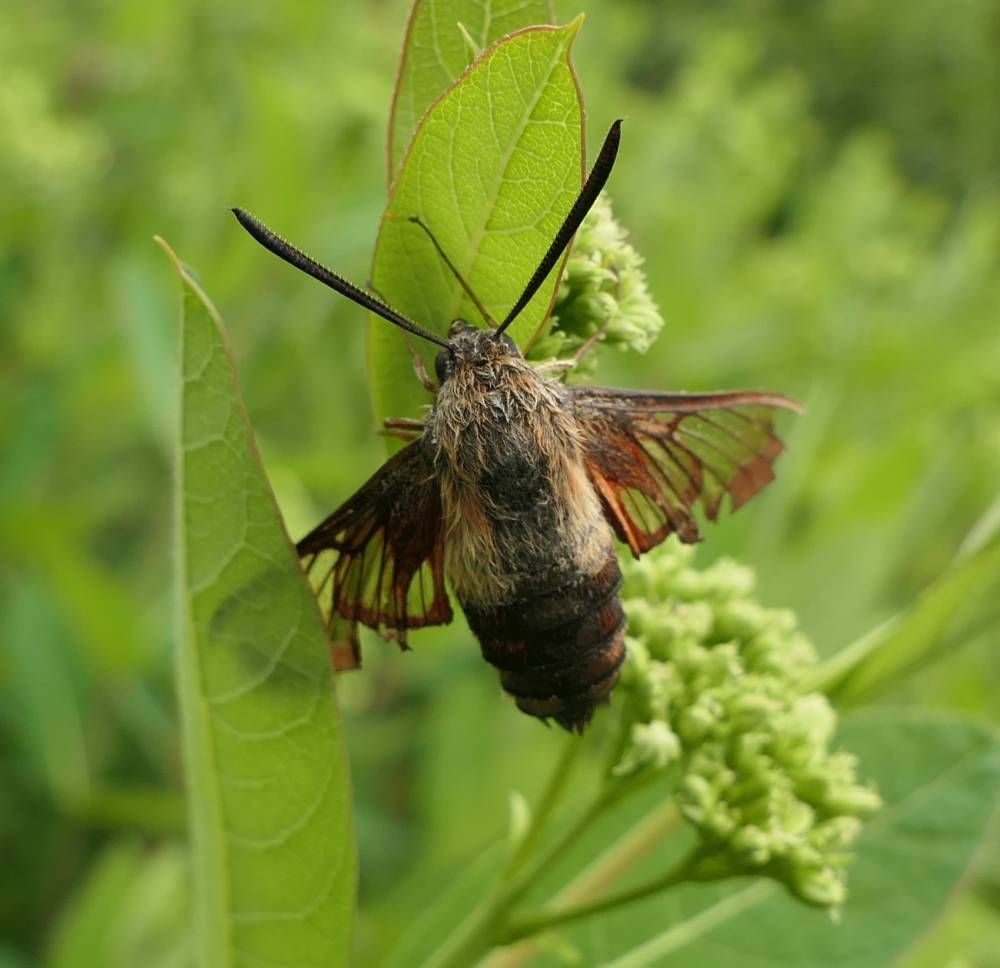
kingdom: Animalia
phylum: Arthropoda
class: Insecta
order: Lepidoptera
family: Sphingidae
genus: Hemaris
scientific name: Hemaris thysbe
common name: Common clear-wing
